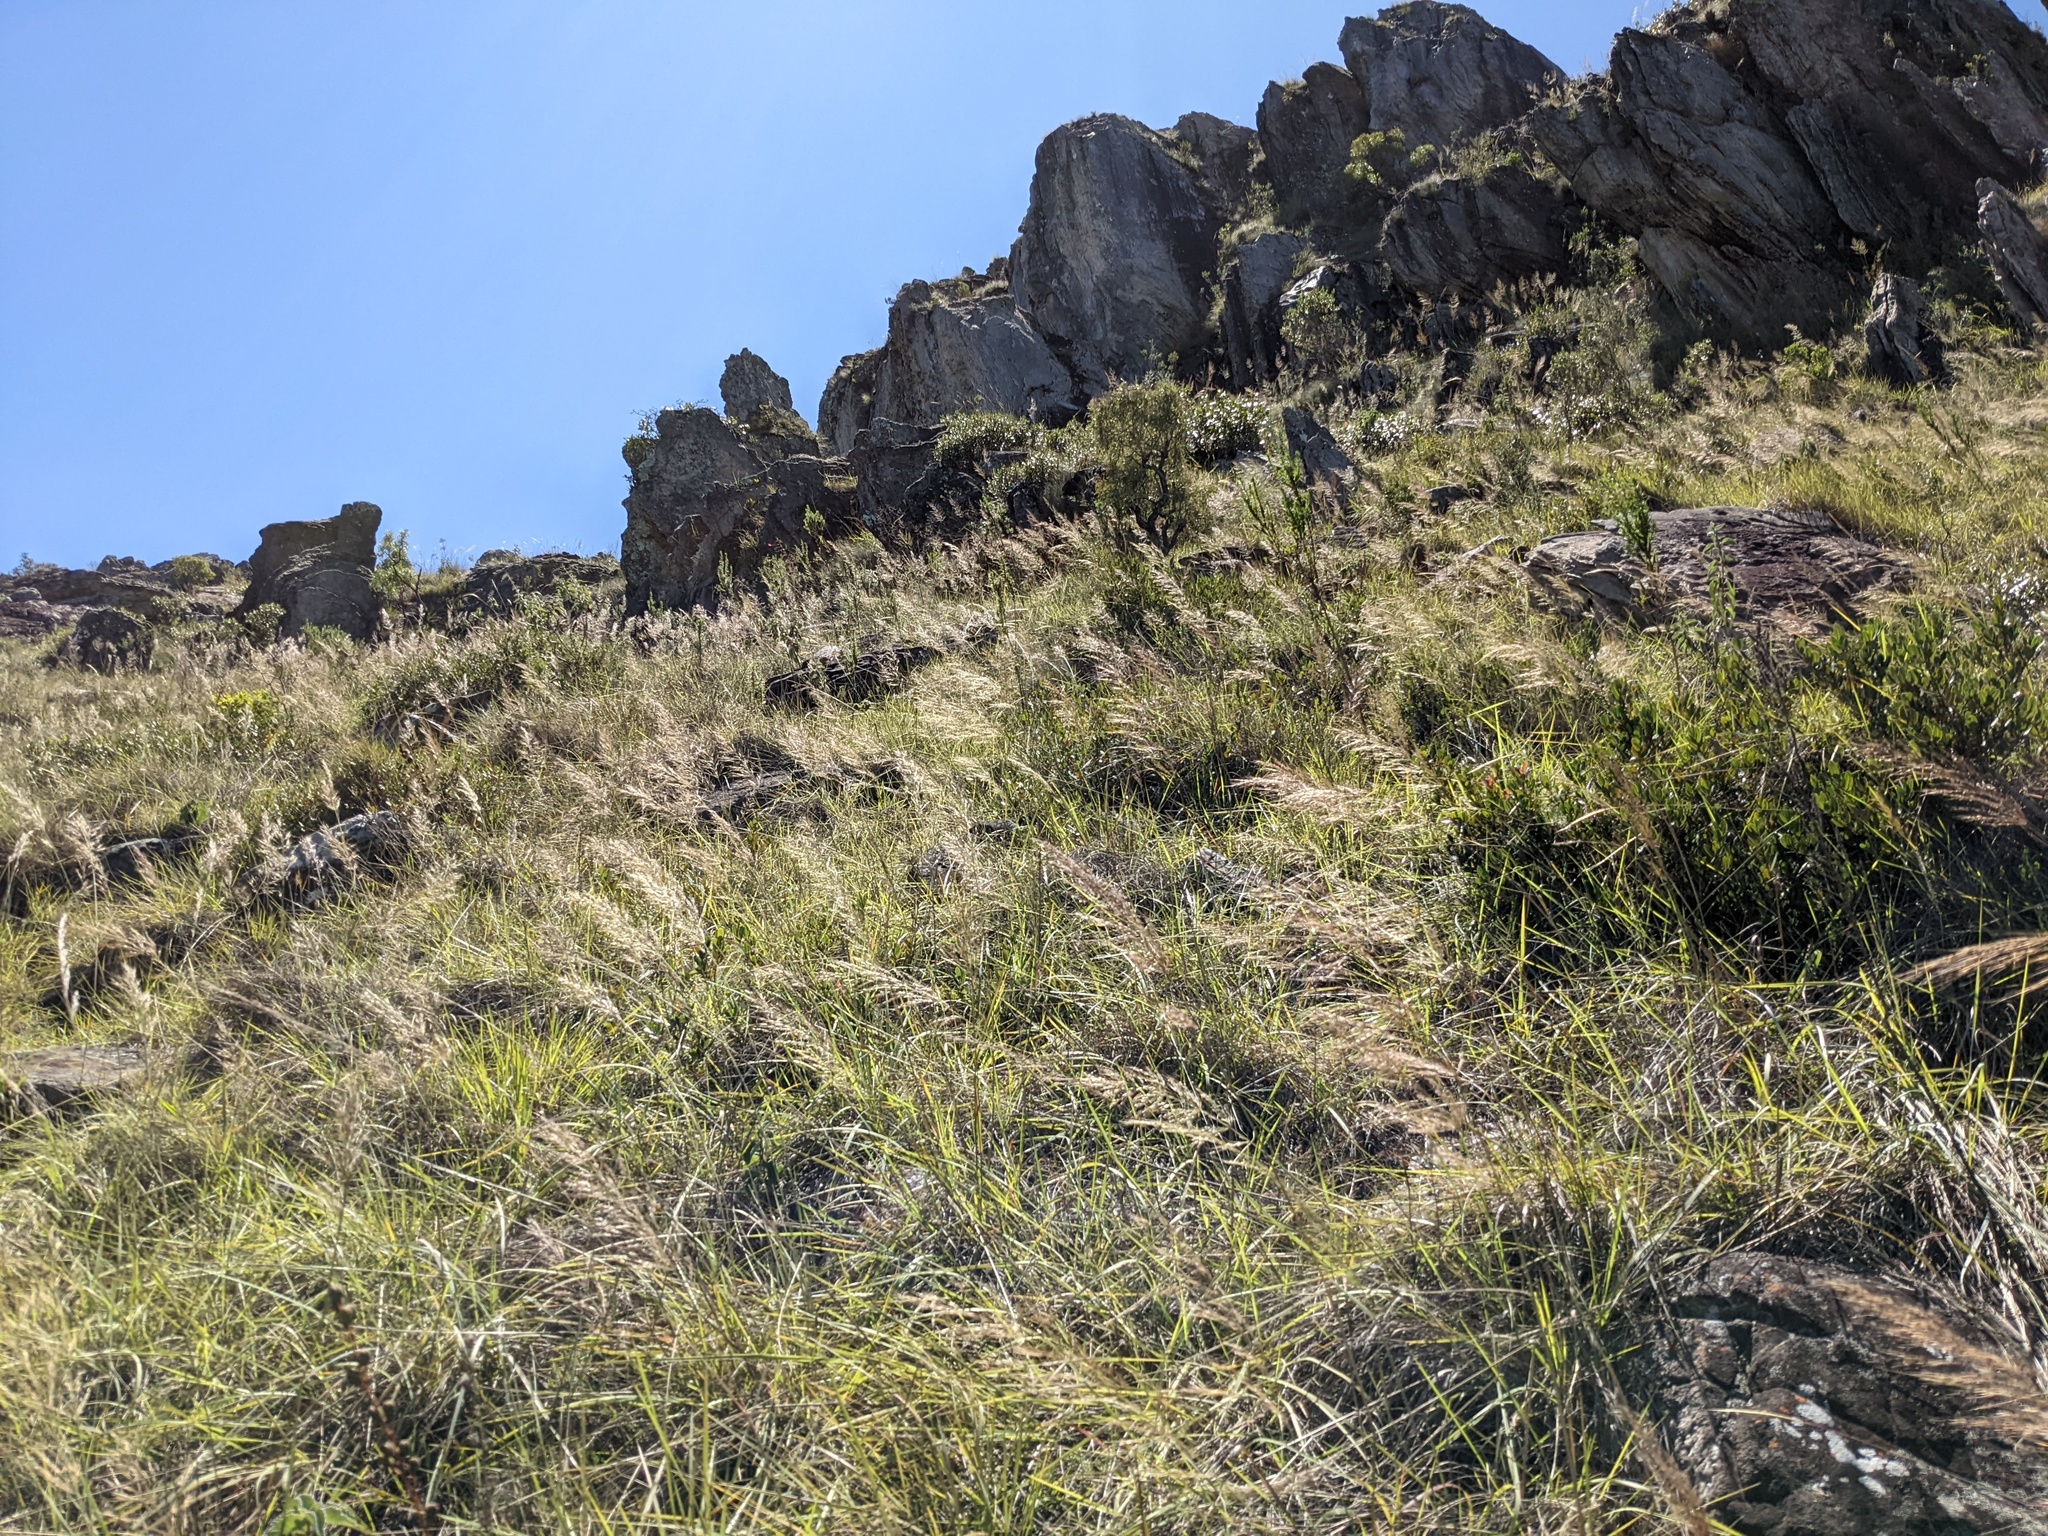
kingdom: Plantae
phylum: Tracheophyta
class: Liliopsida
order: Poales
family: Poaceae
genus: Loudetia
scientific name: Loudetia simplex
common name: Common russet grass
